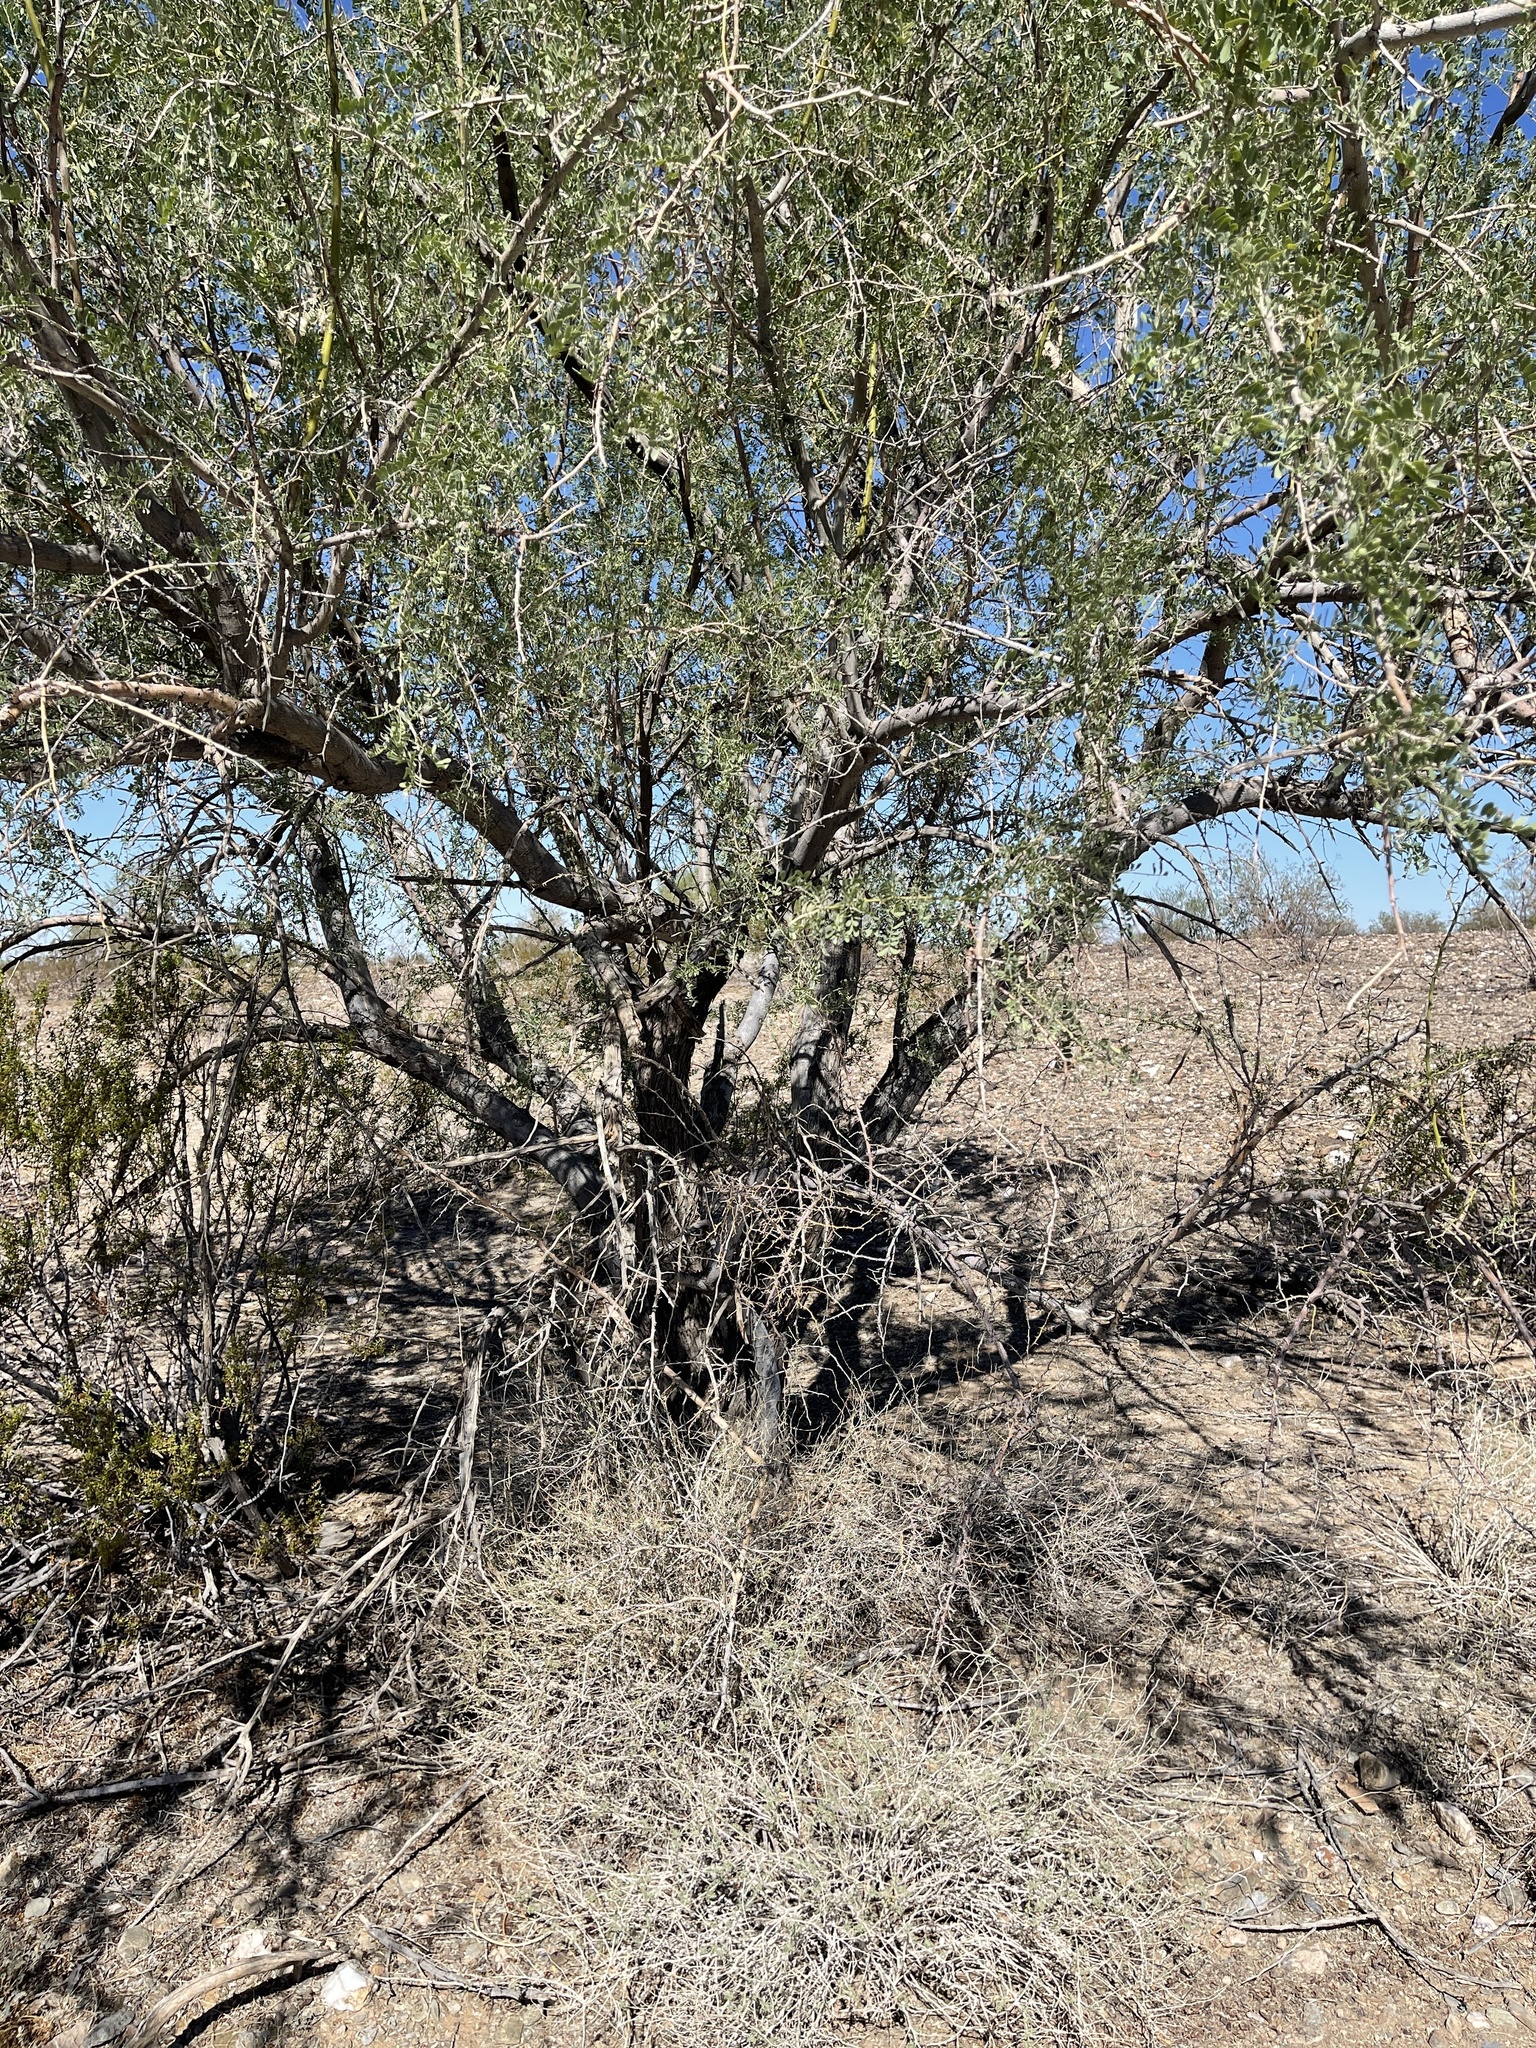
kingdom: Plantae
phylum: Tracheophyta
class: Magnoliopsida
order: Fabales
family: Fabaceae
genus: Olneya
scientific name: Olneya tesota
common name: Desert ironwood
